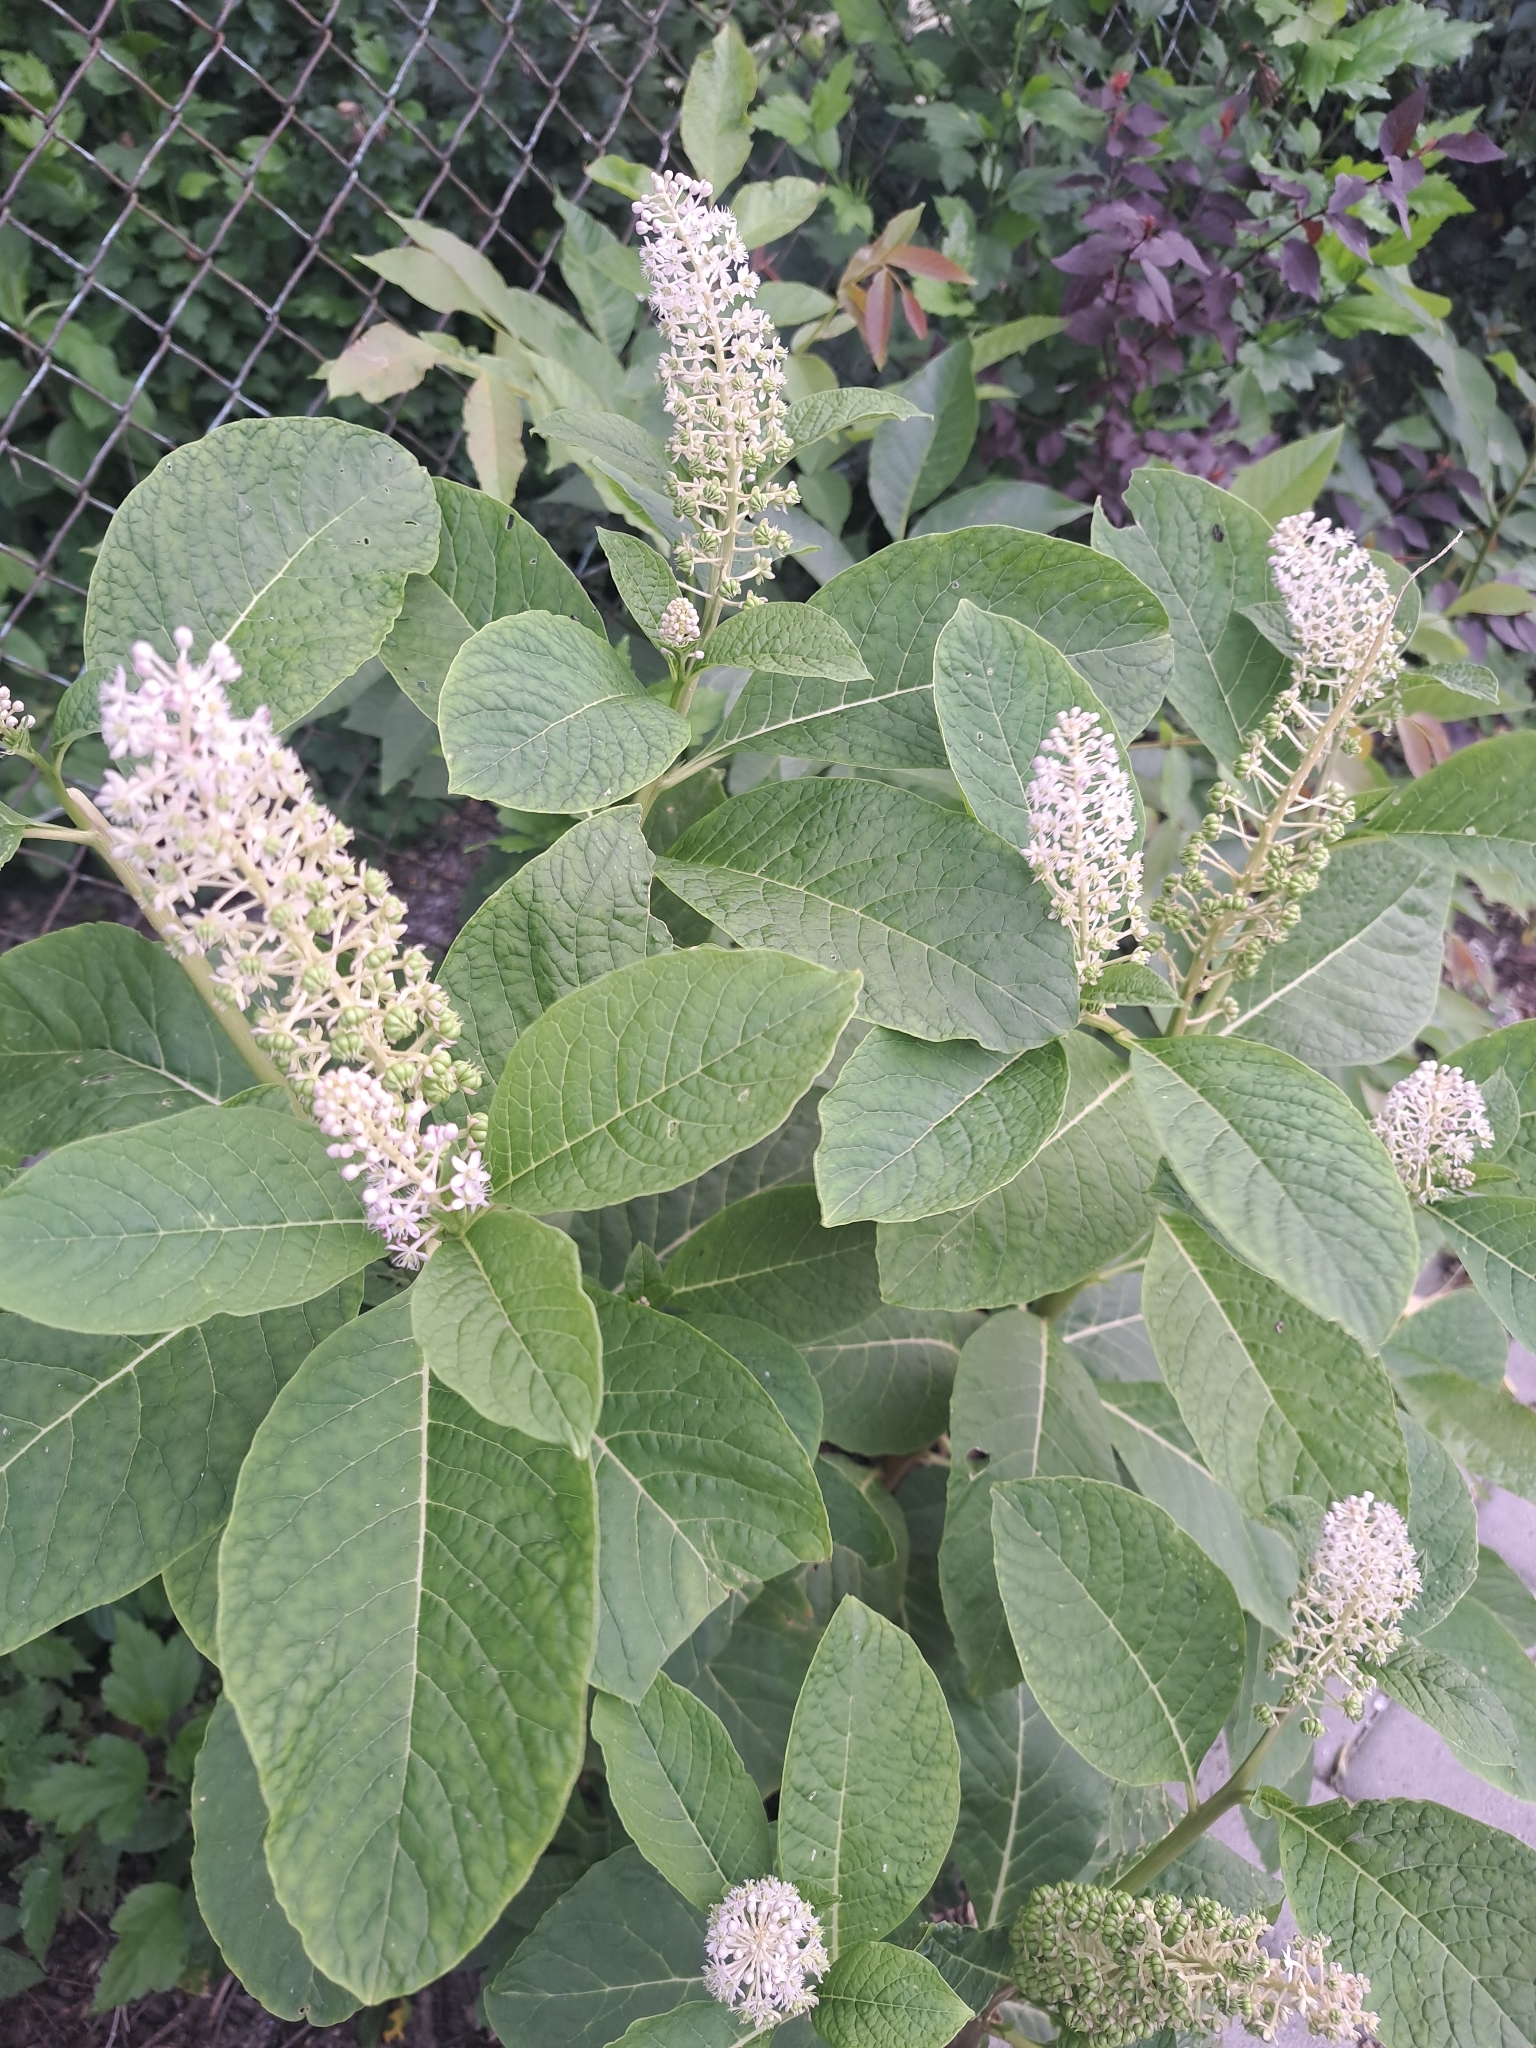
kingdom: Plantae
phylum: Tracheophyta
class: Magnoliopsida
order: Caryophyllales
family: Phytolaccaceae
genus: Phytolacca
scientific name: Phytolacca acinosa
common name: Indian pokeweed
